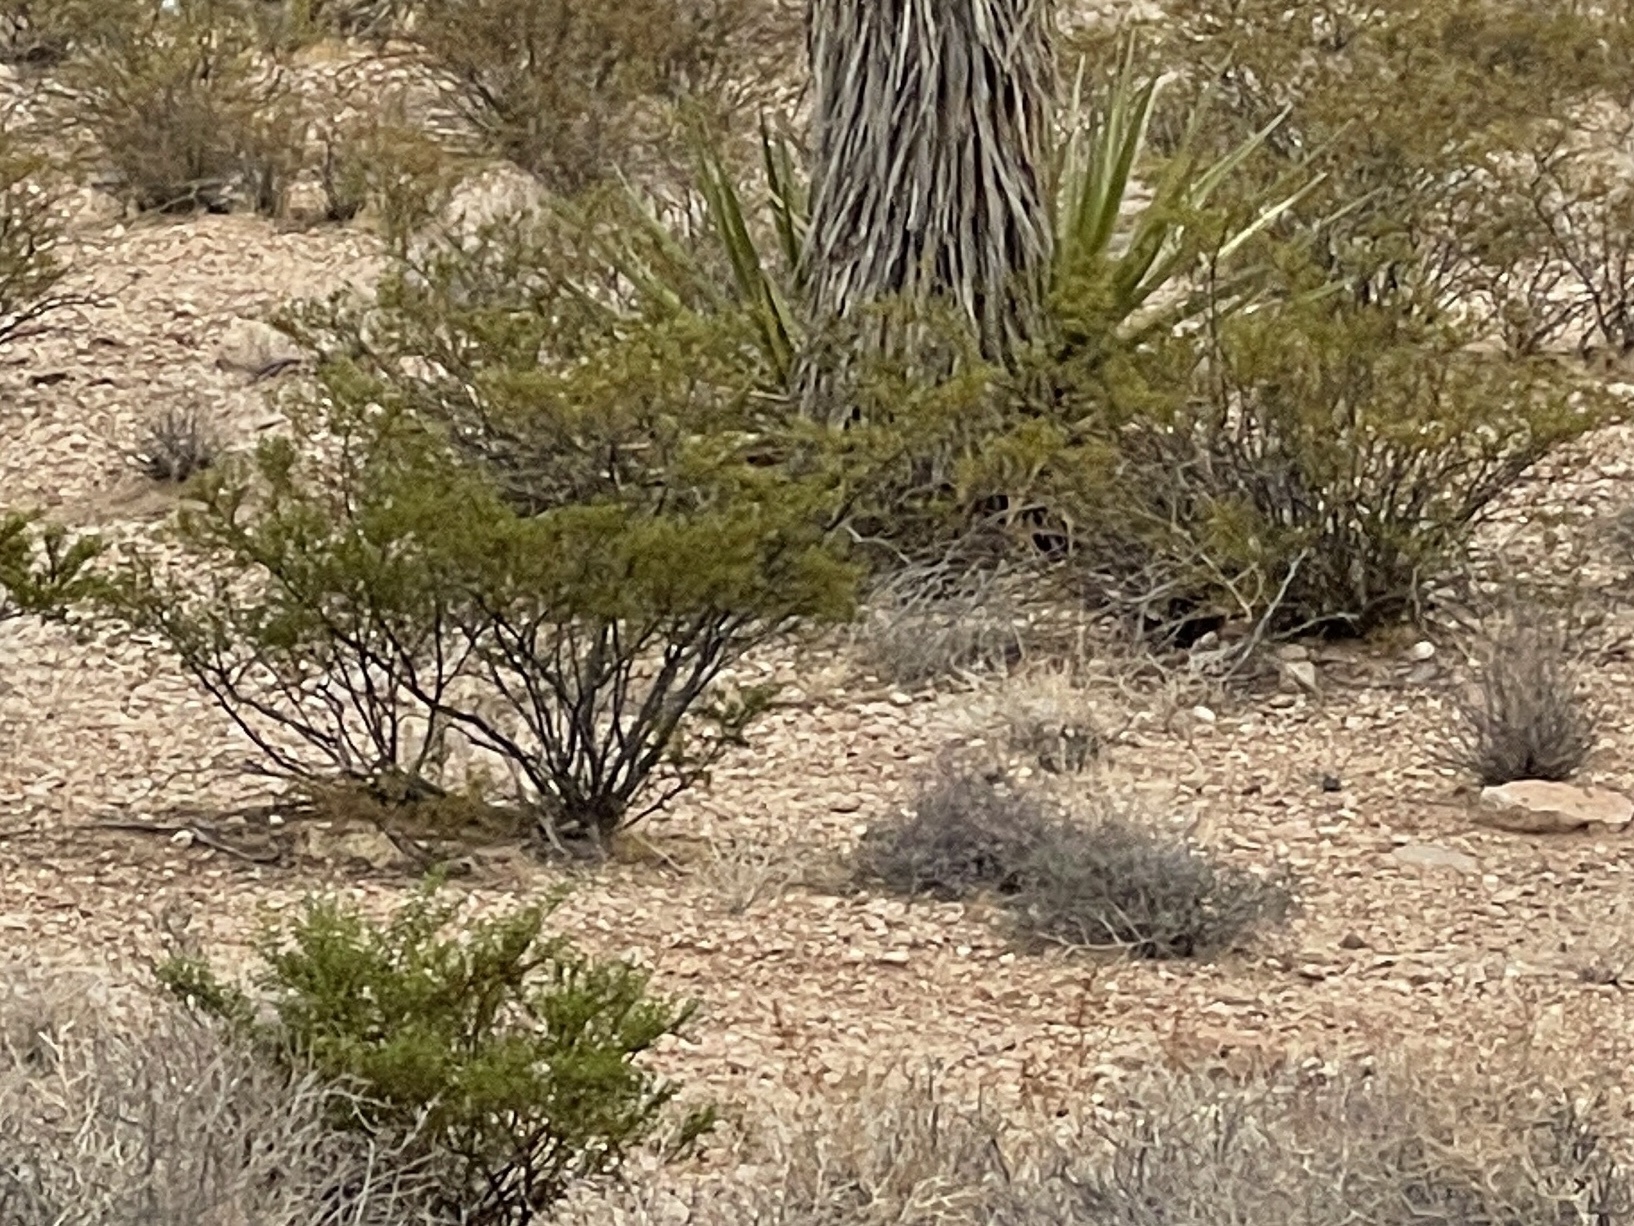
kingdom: Plantae
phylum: Tracheophyta
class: Magnoliopsida
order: Zygophyllales
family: Zygophyllaceae
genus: Larrea
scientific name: Larrea tridentata
